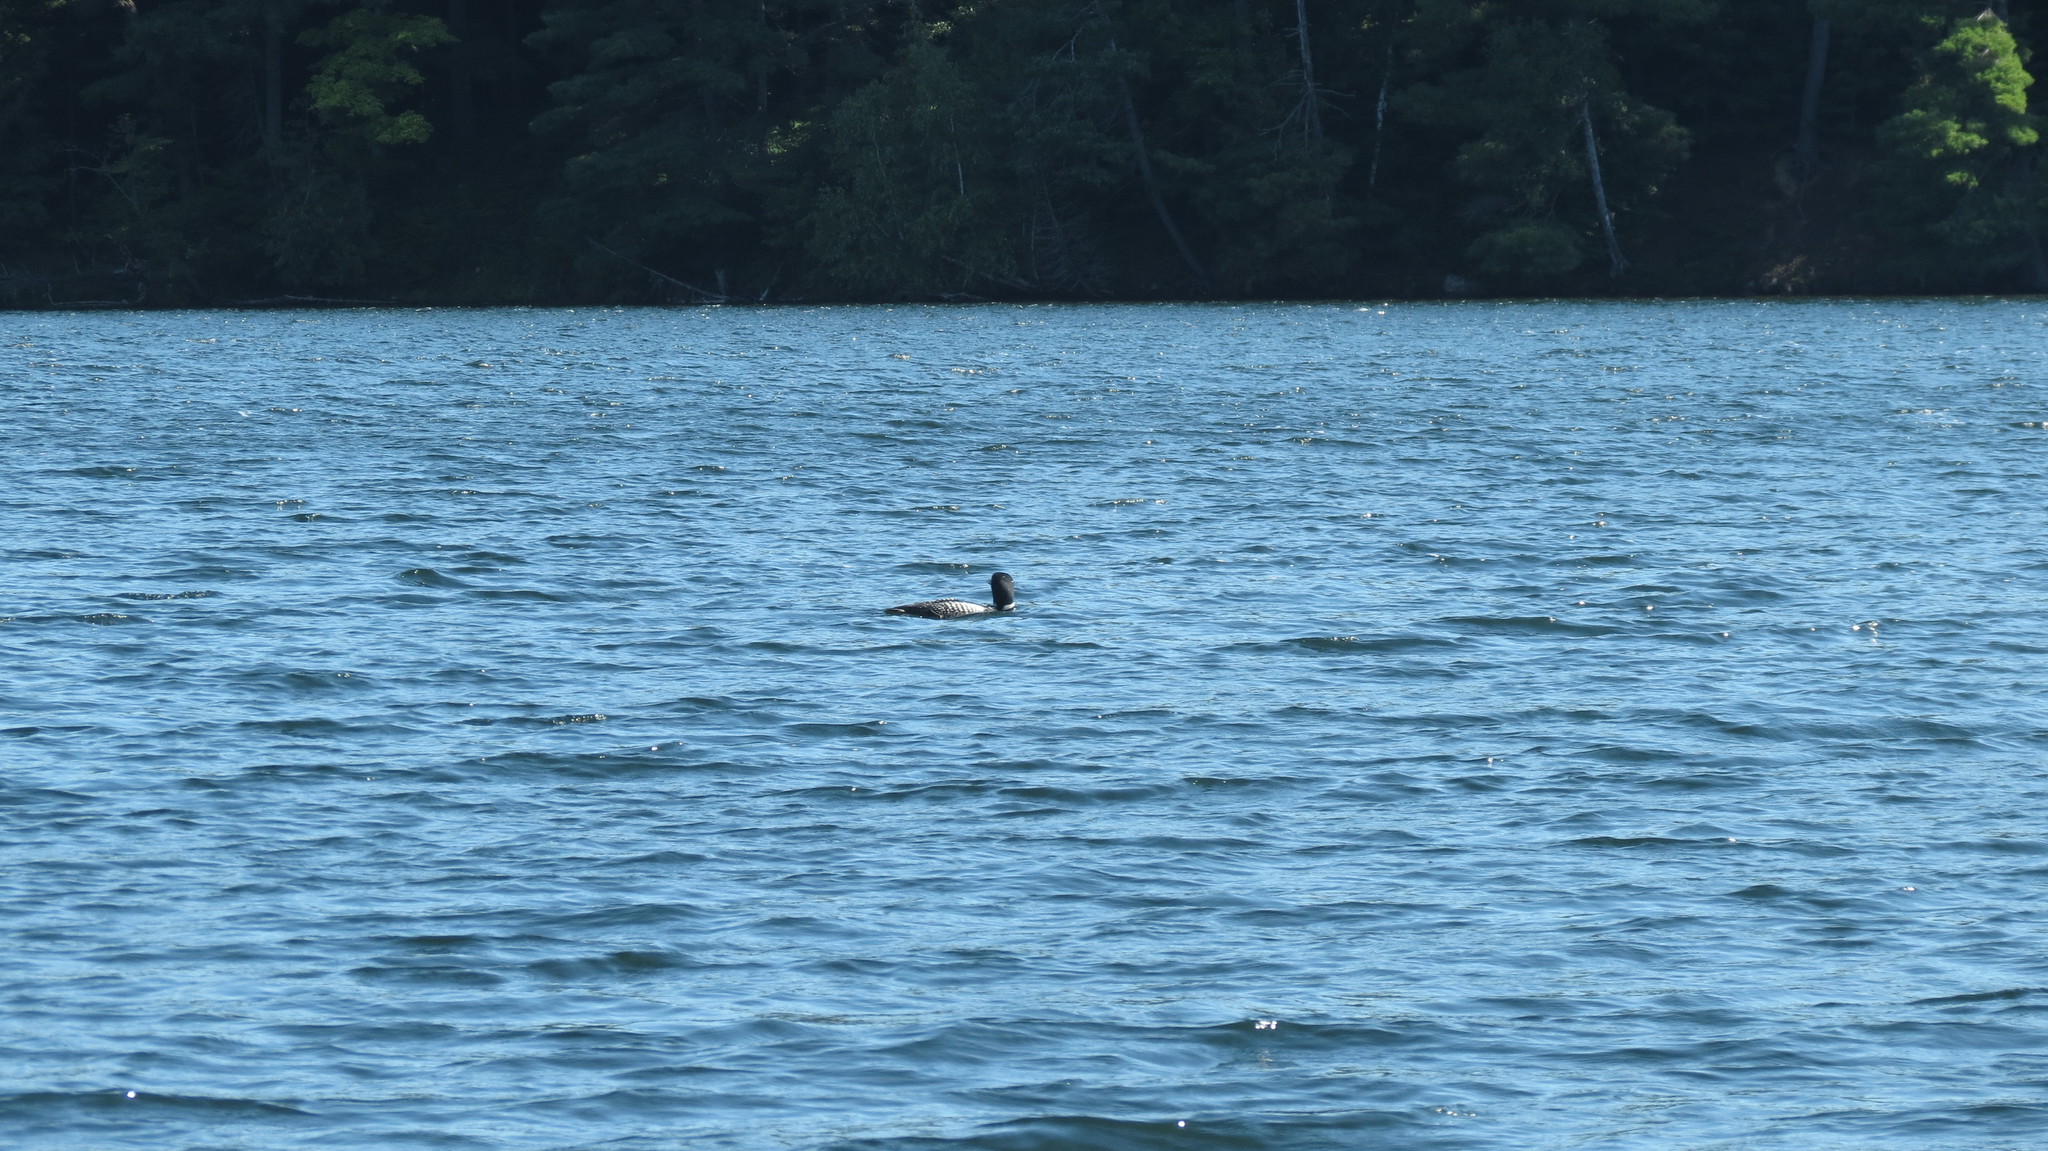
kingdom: Animalia
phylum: Chordata
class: Aves
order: Gaviiformes
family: Gaviidae
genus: Gavia
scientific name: Gavia immer
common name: Common loon
